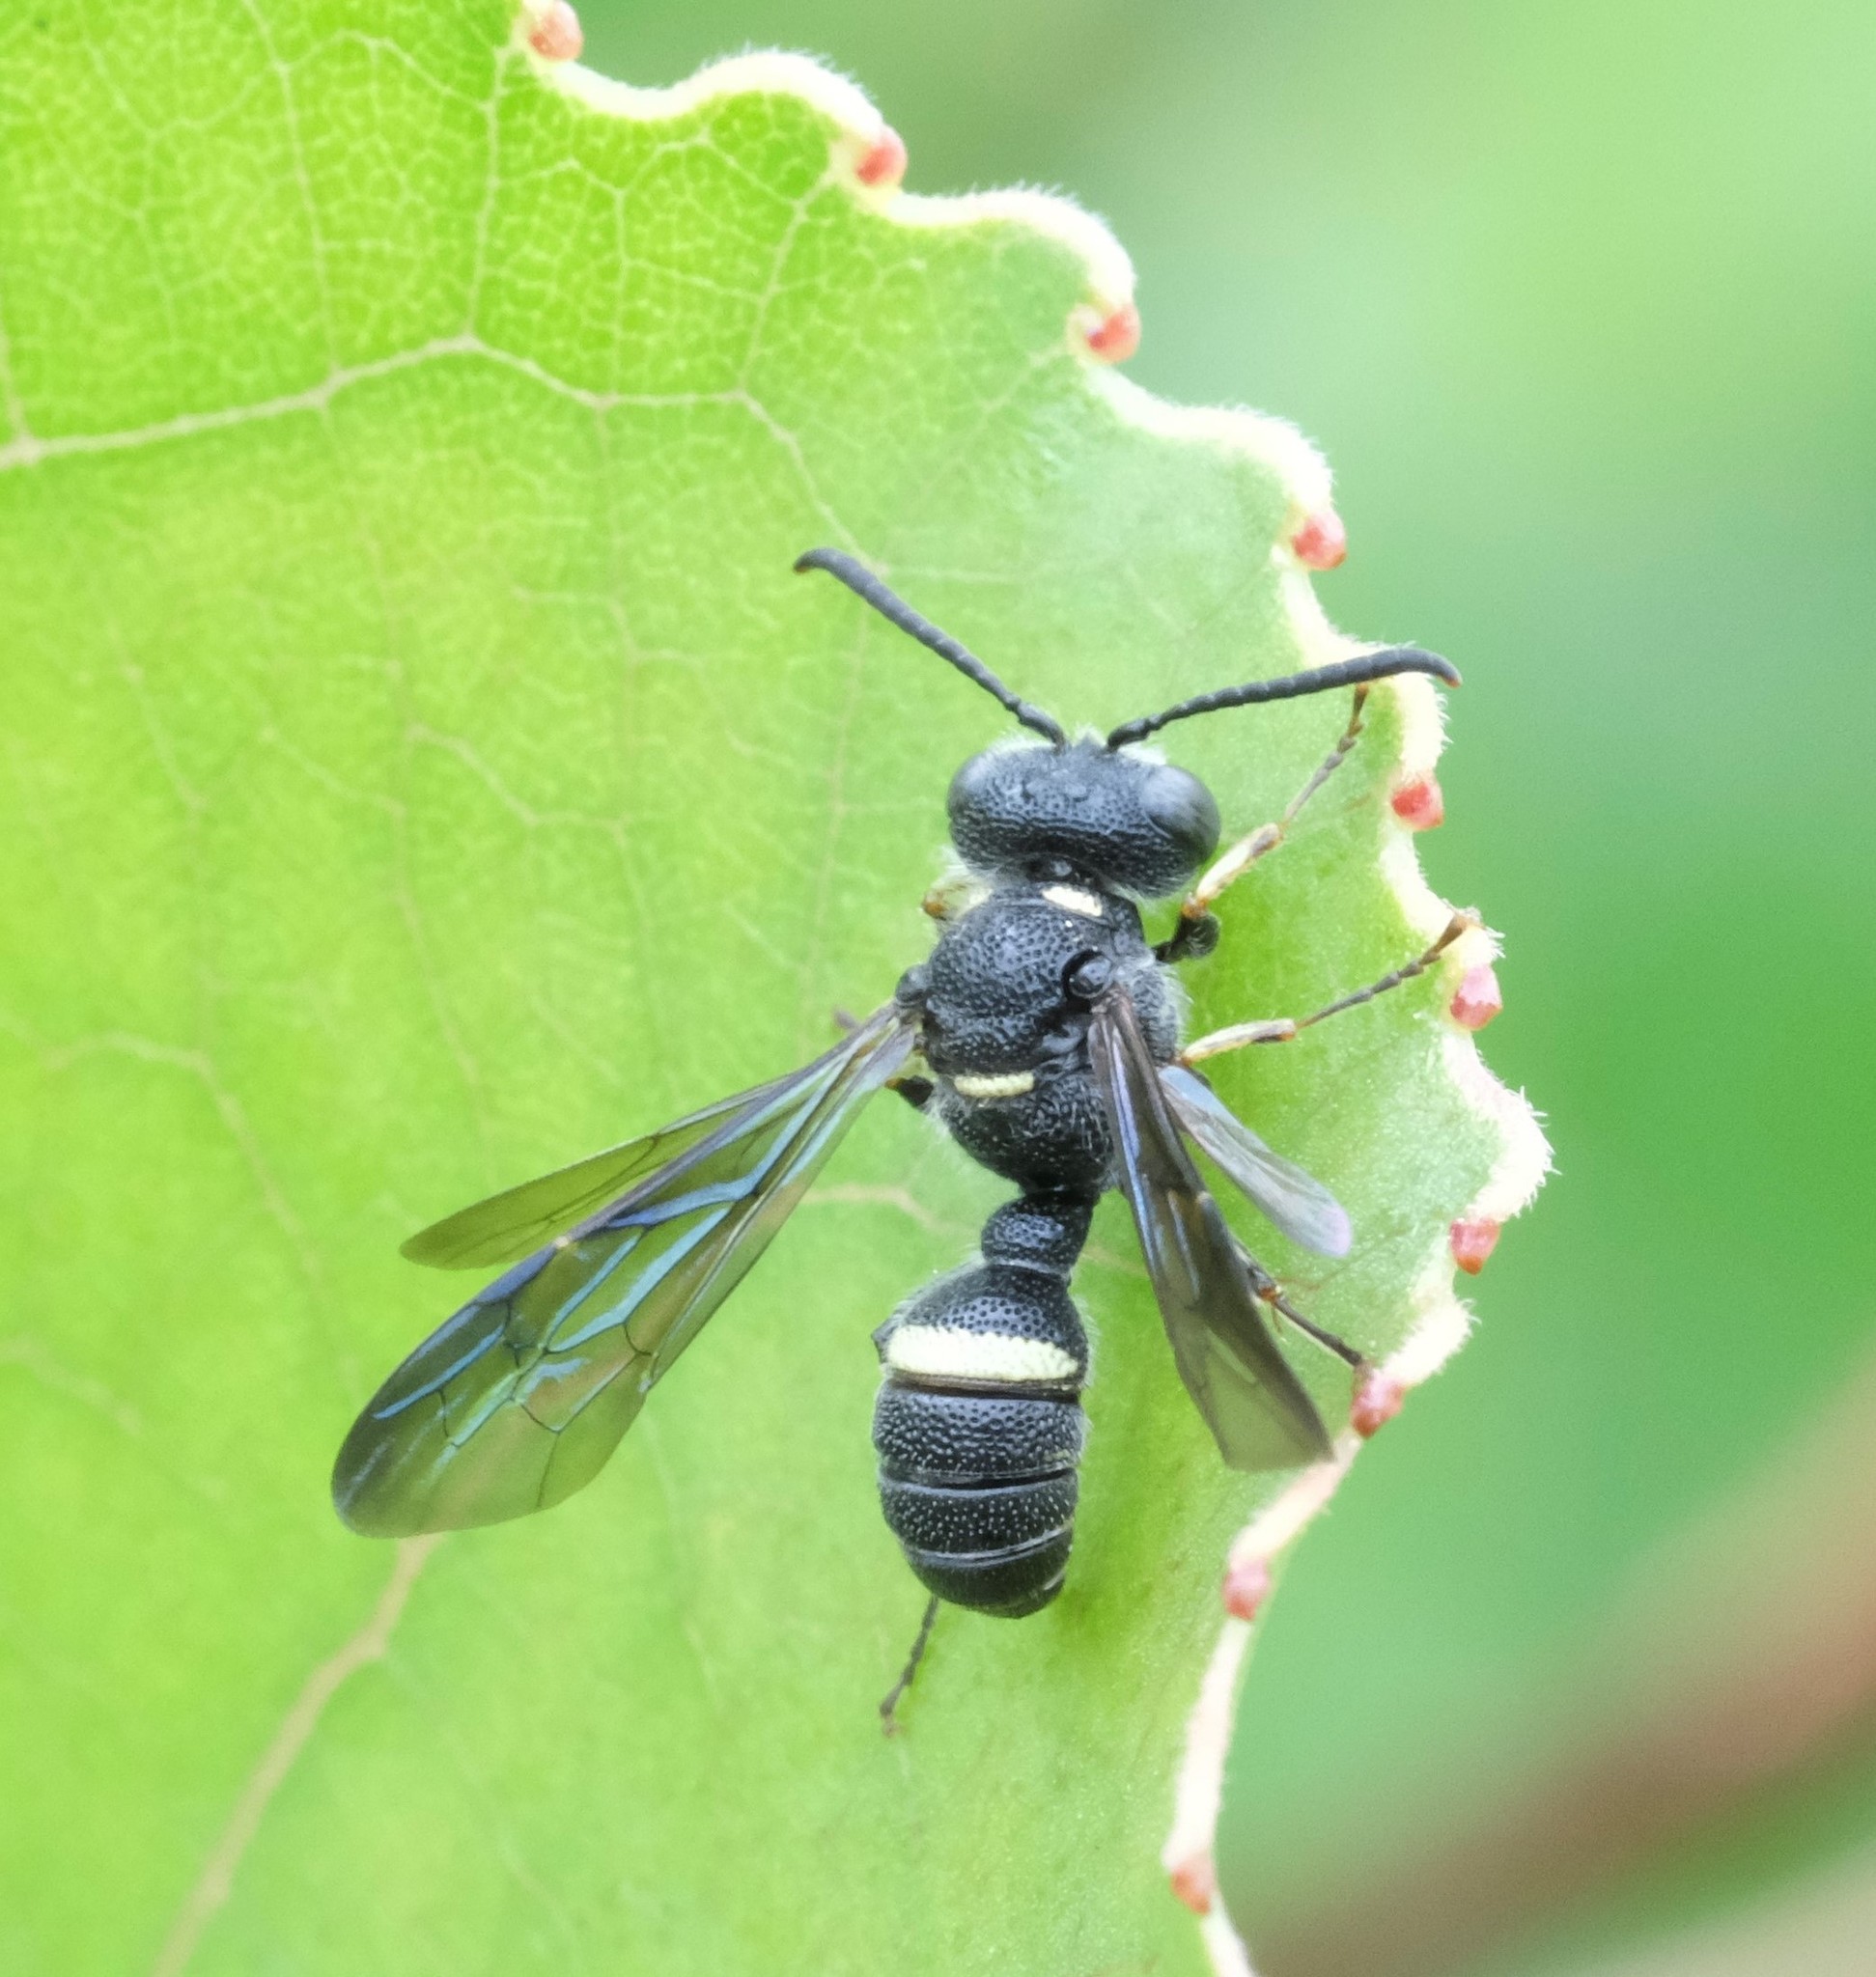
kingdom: Animalia
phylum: Arthropoda
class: Insecta
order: Hymenoptera
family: Crabronidae
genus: Cerceris
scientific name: Cerceris fumipennis
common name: Smokey-winged beetle bandit wasp
